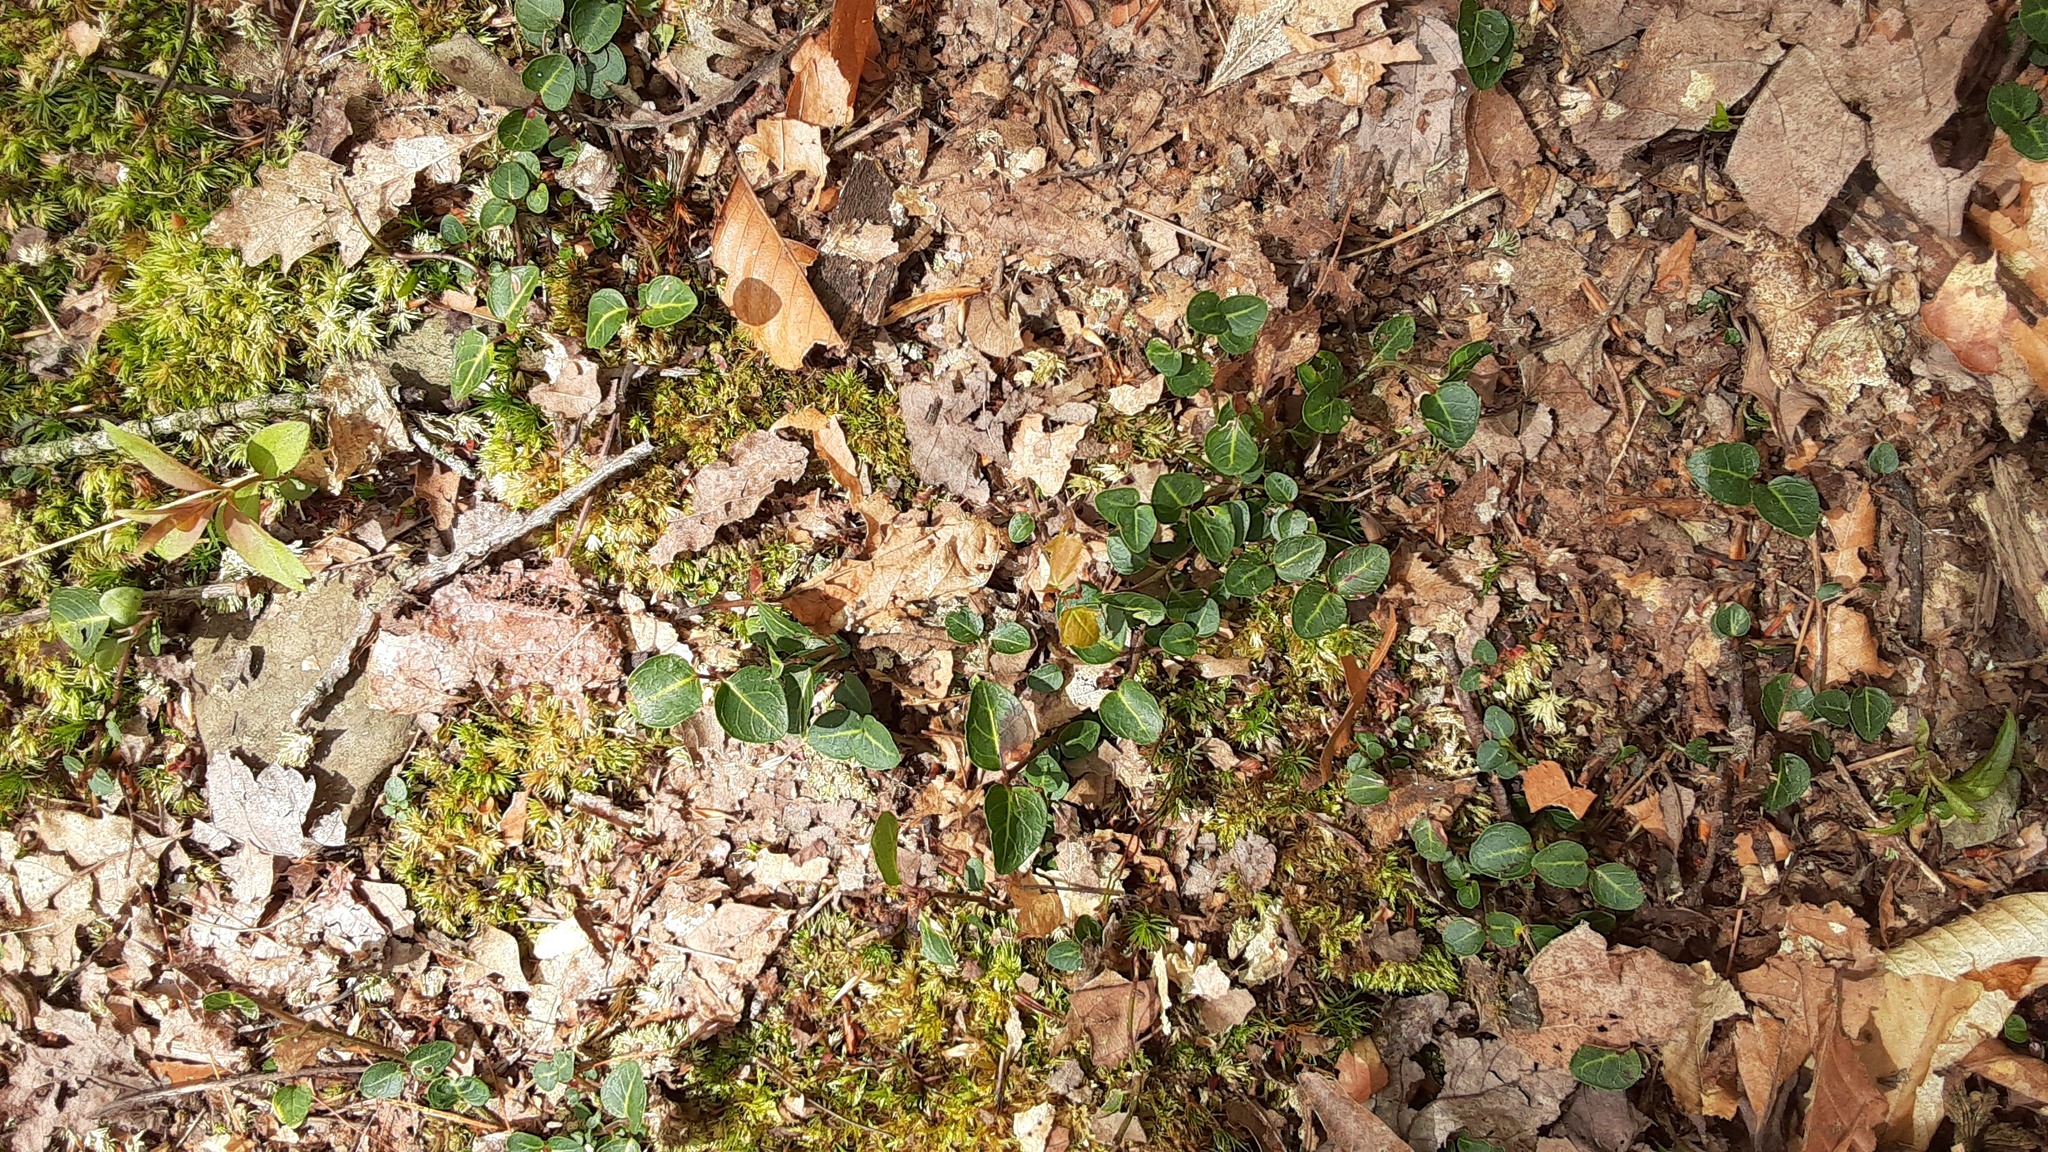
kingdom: Plantae
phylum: Tracheophyta
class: Magnoliopsida
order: Gentianales
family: Rubiaceae
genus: Mitchella
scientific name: Mitchella repens
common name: Partridge-berry
